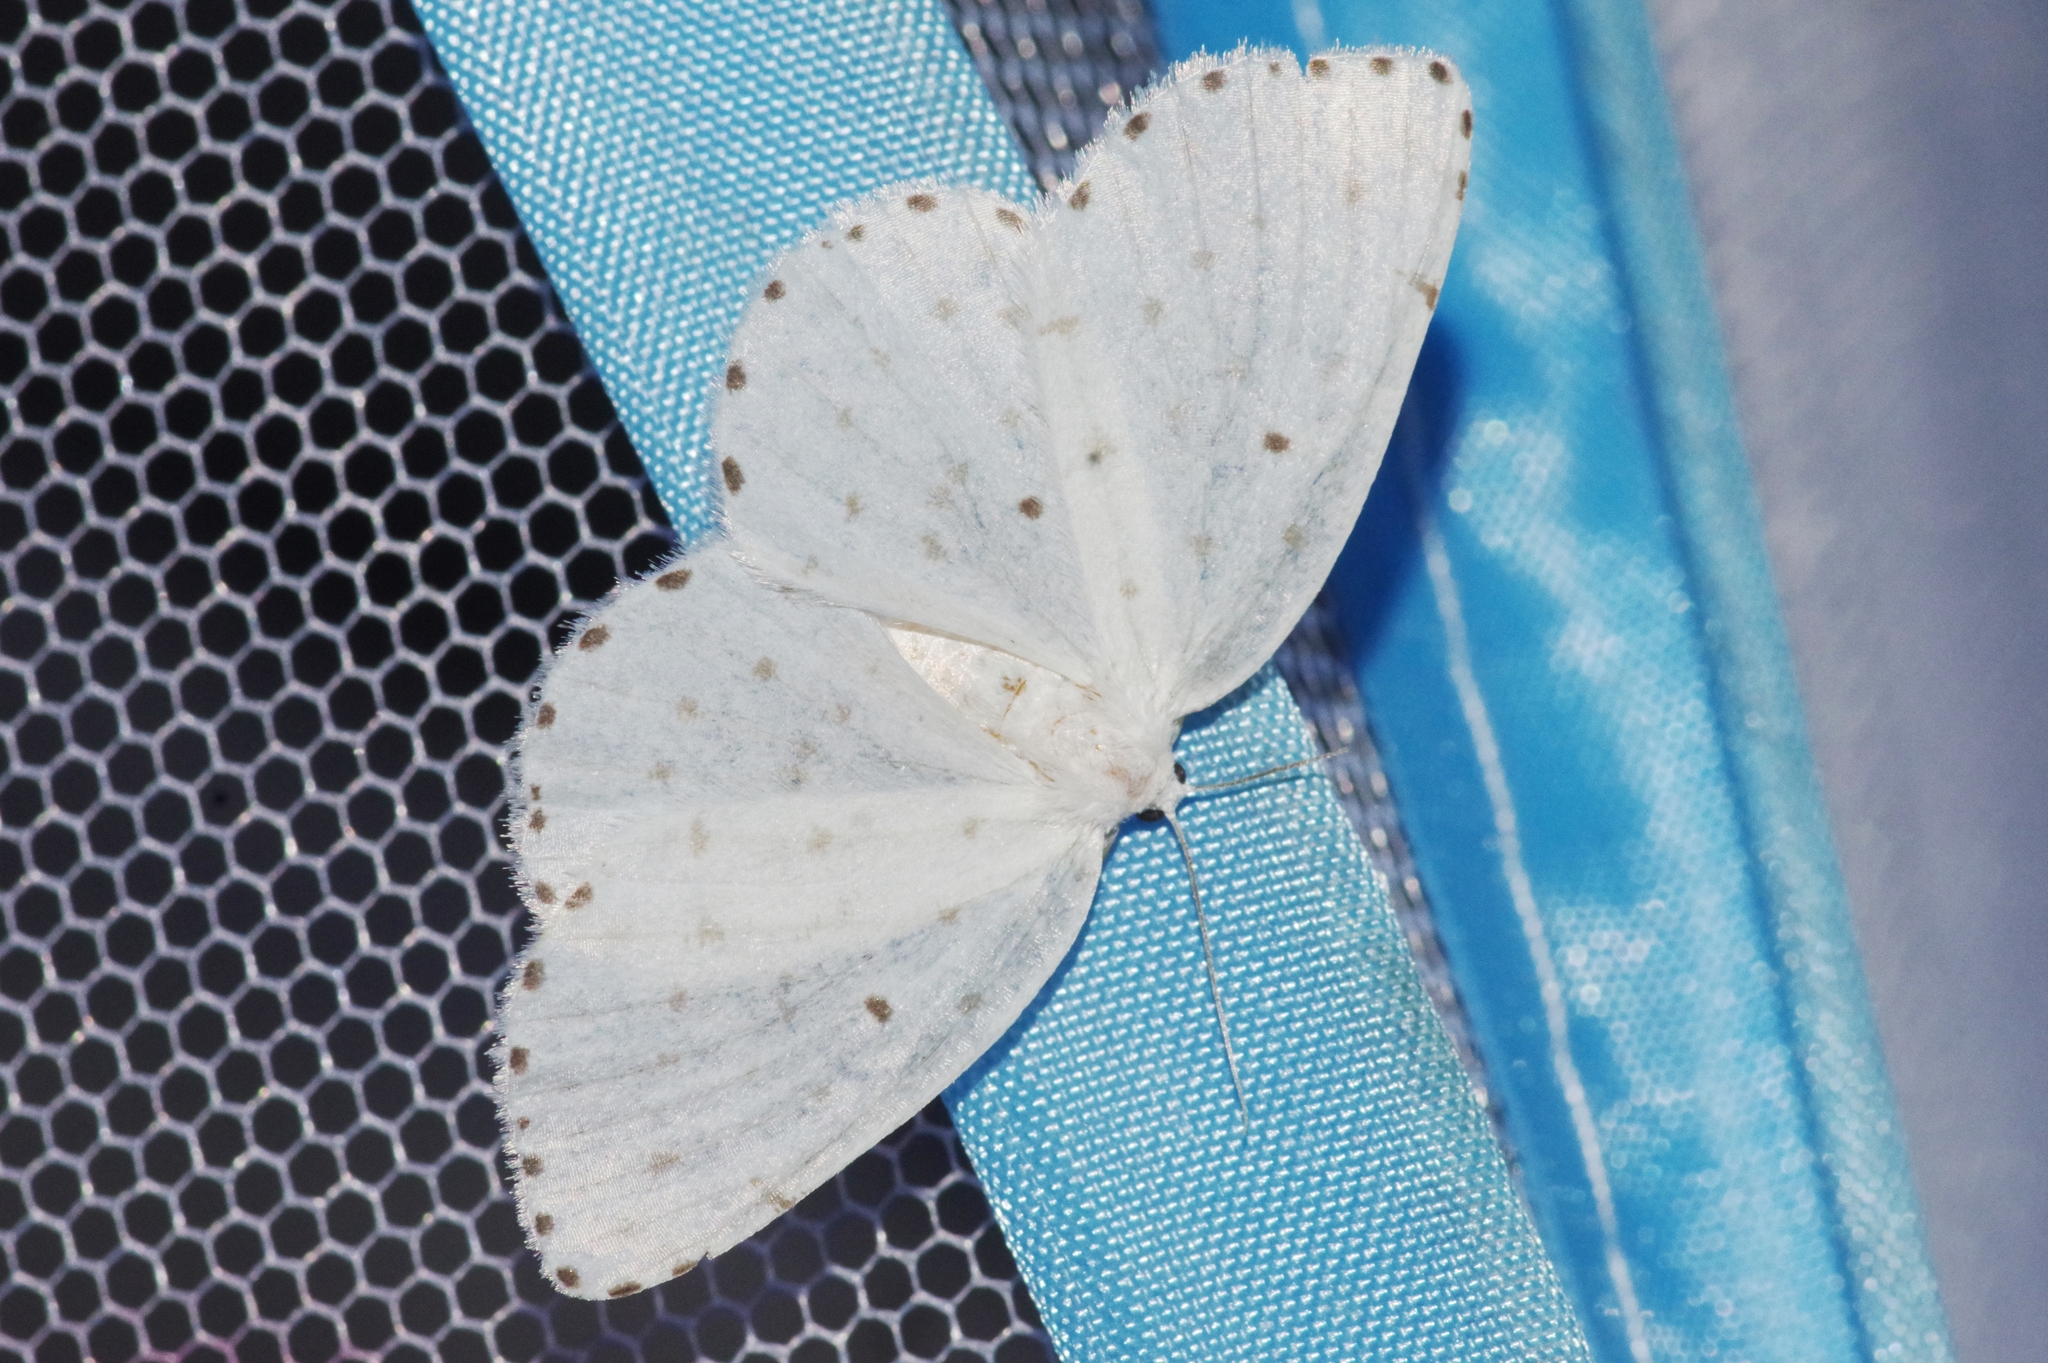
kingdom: Animalia
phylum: Arthropoda
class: Insecta
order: Lepidoptera
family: Geometridae
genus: Myrteta
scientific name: Myrteta punctata
